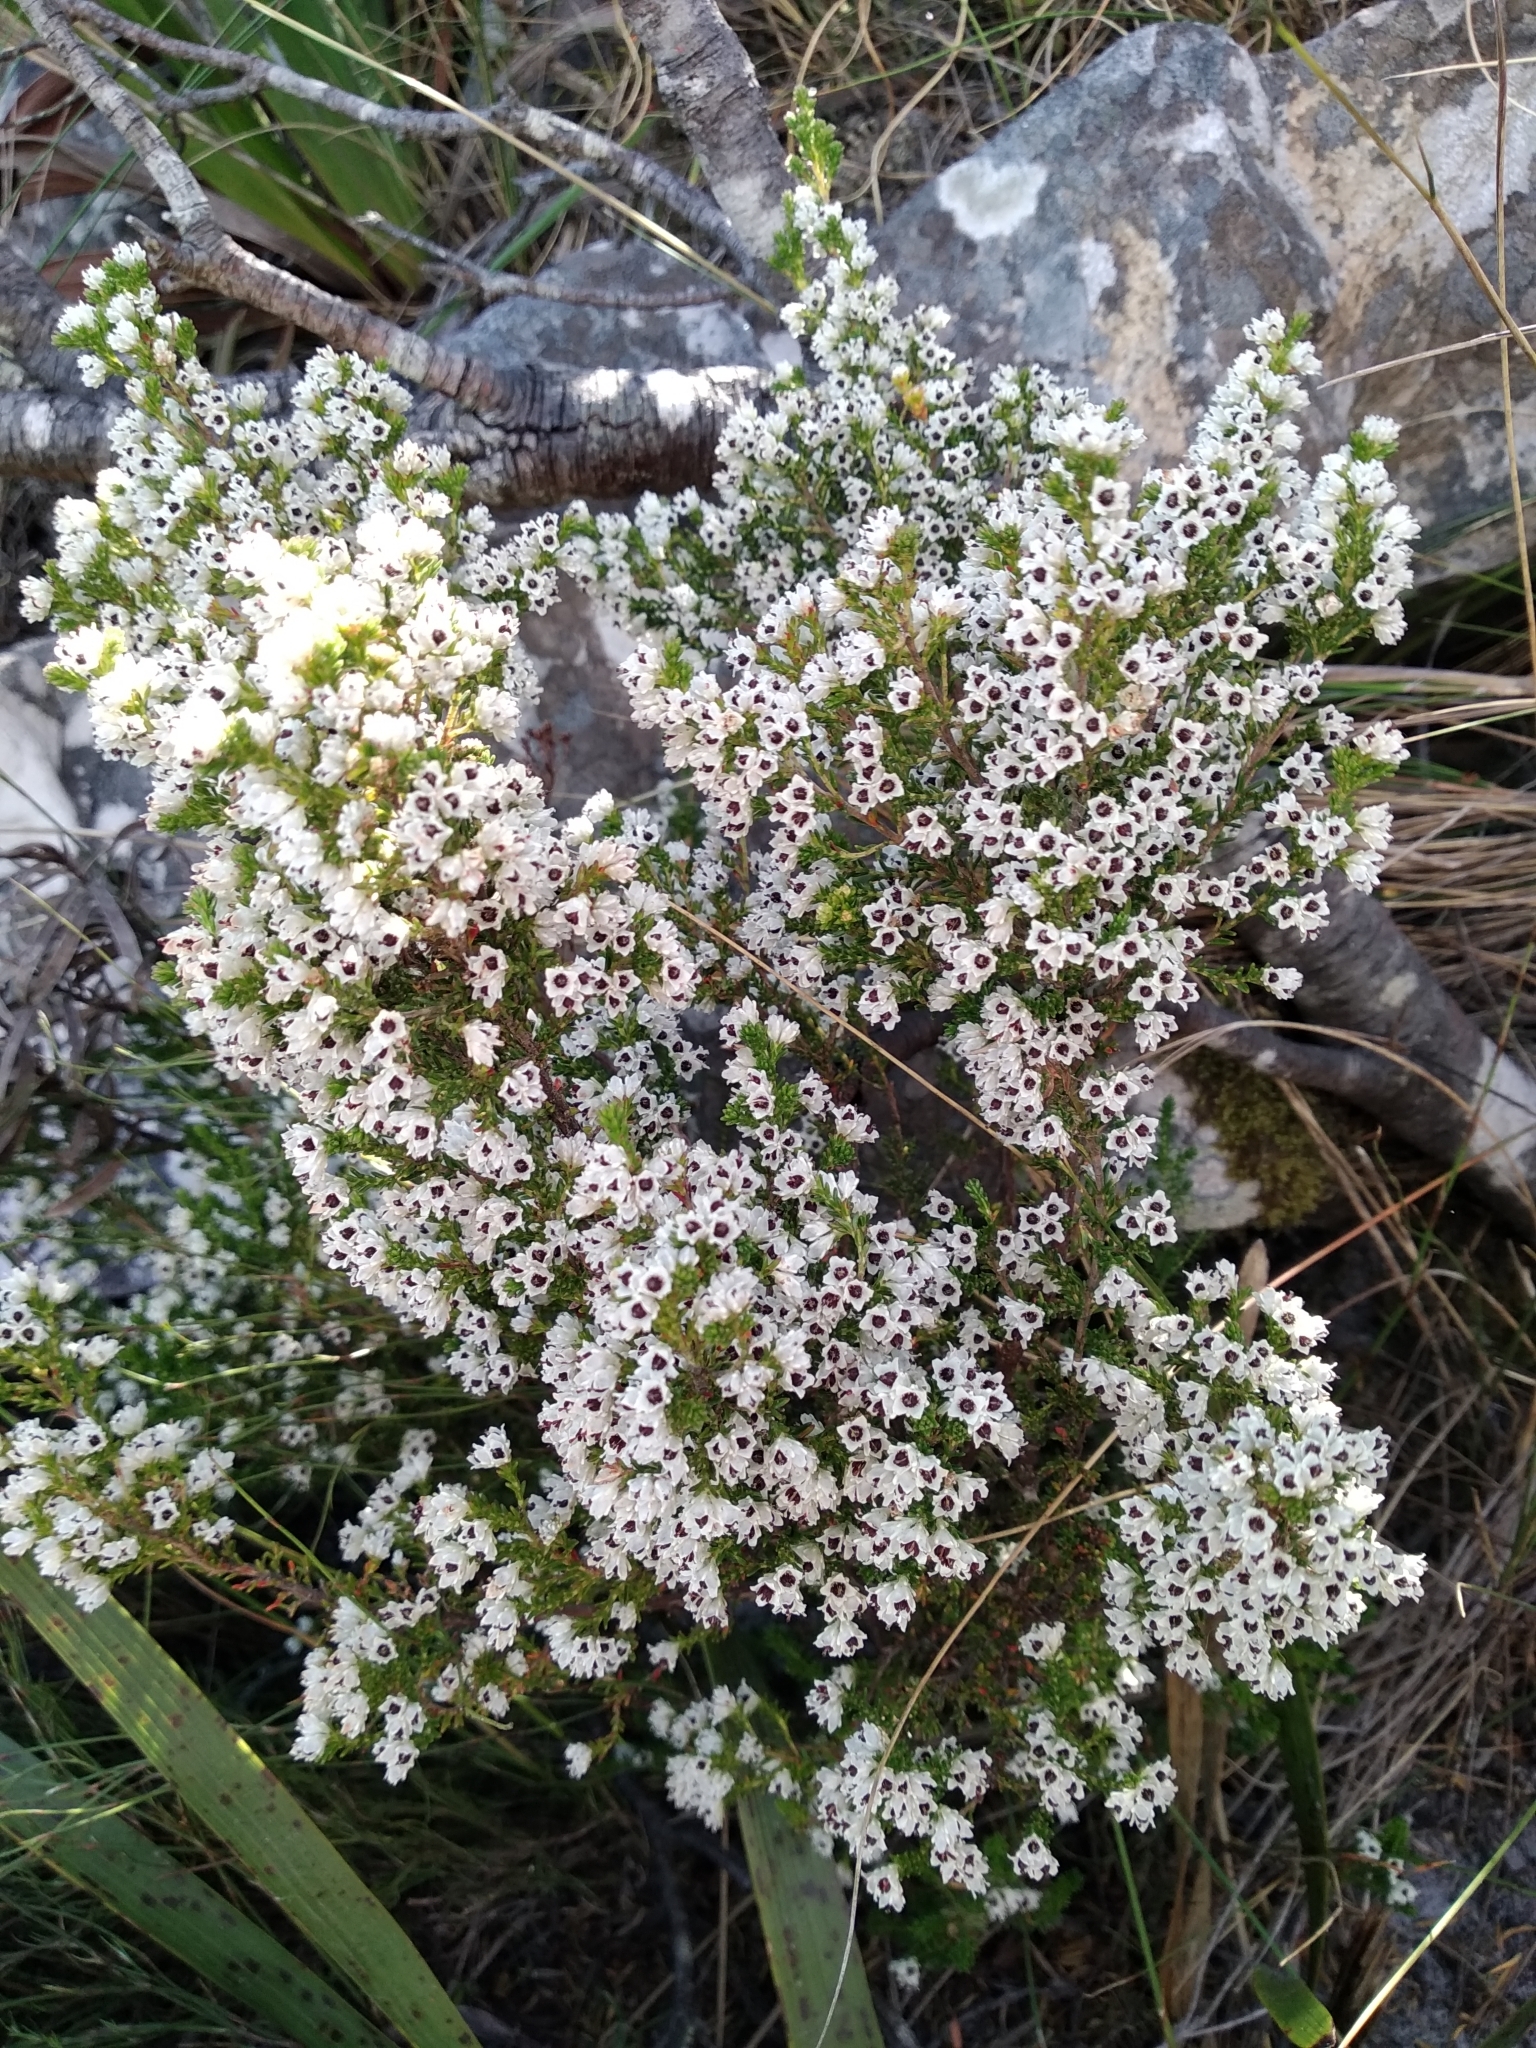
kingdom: Plantae
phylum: Tracheophyta
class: Magnoliopsida
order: Ericales
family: Ericaceae
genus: Erica
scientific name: Erica diosmifolia
